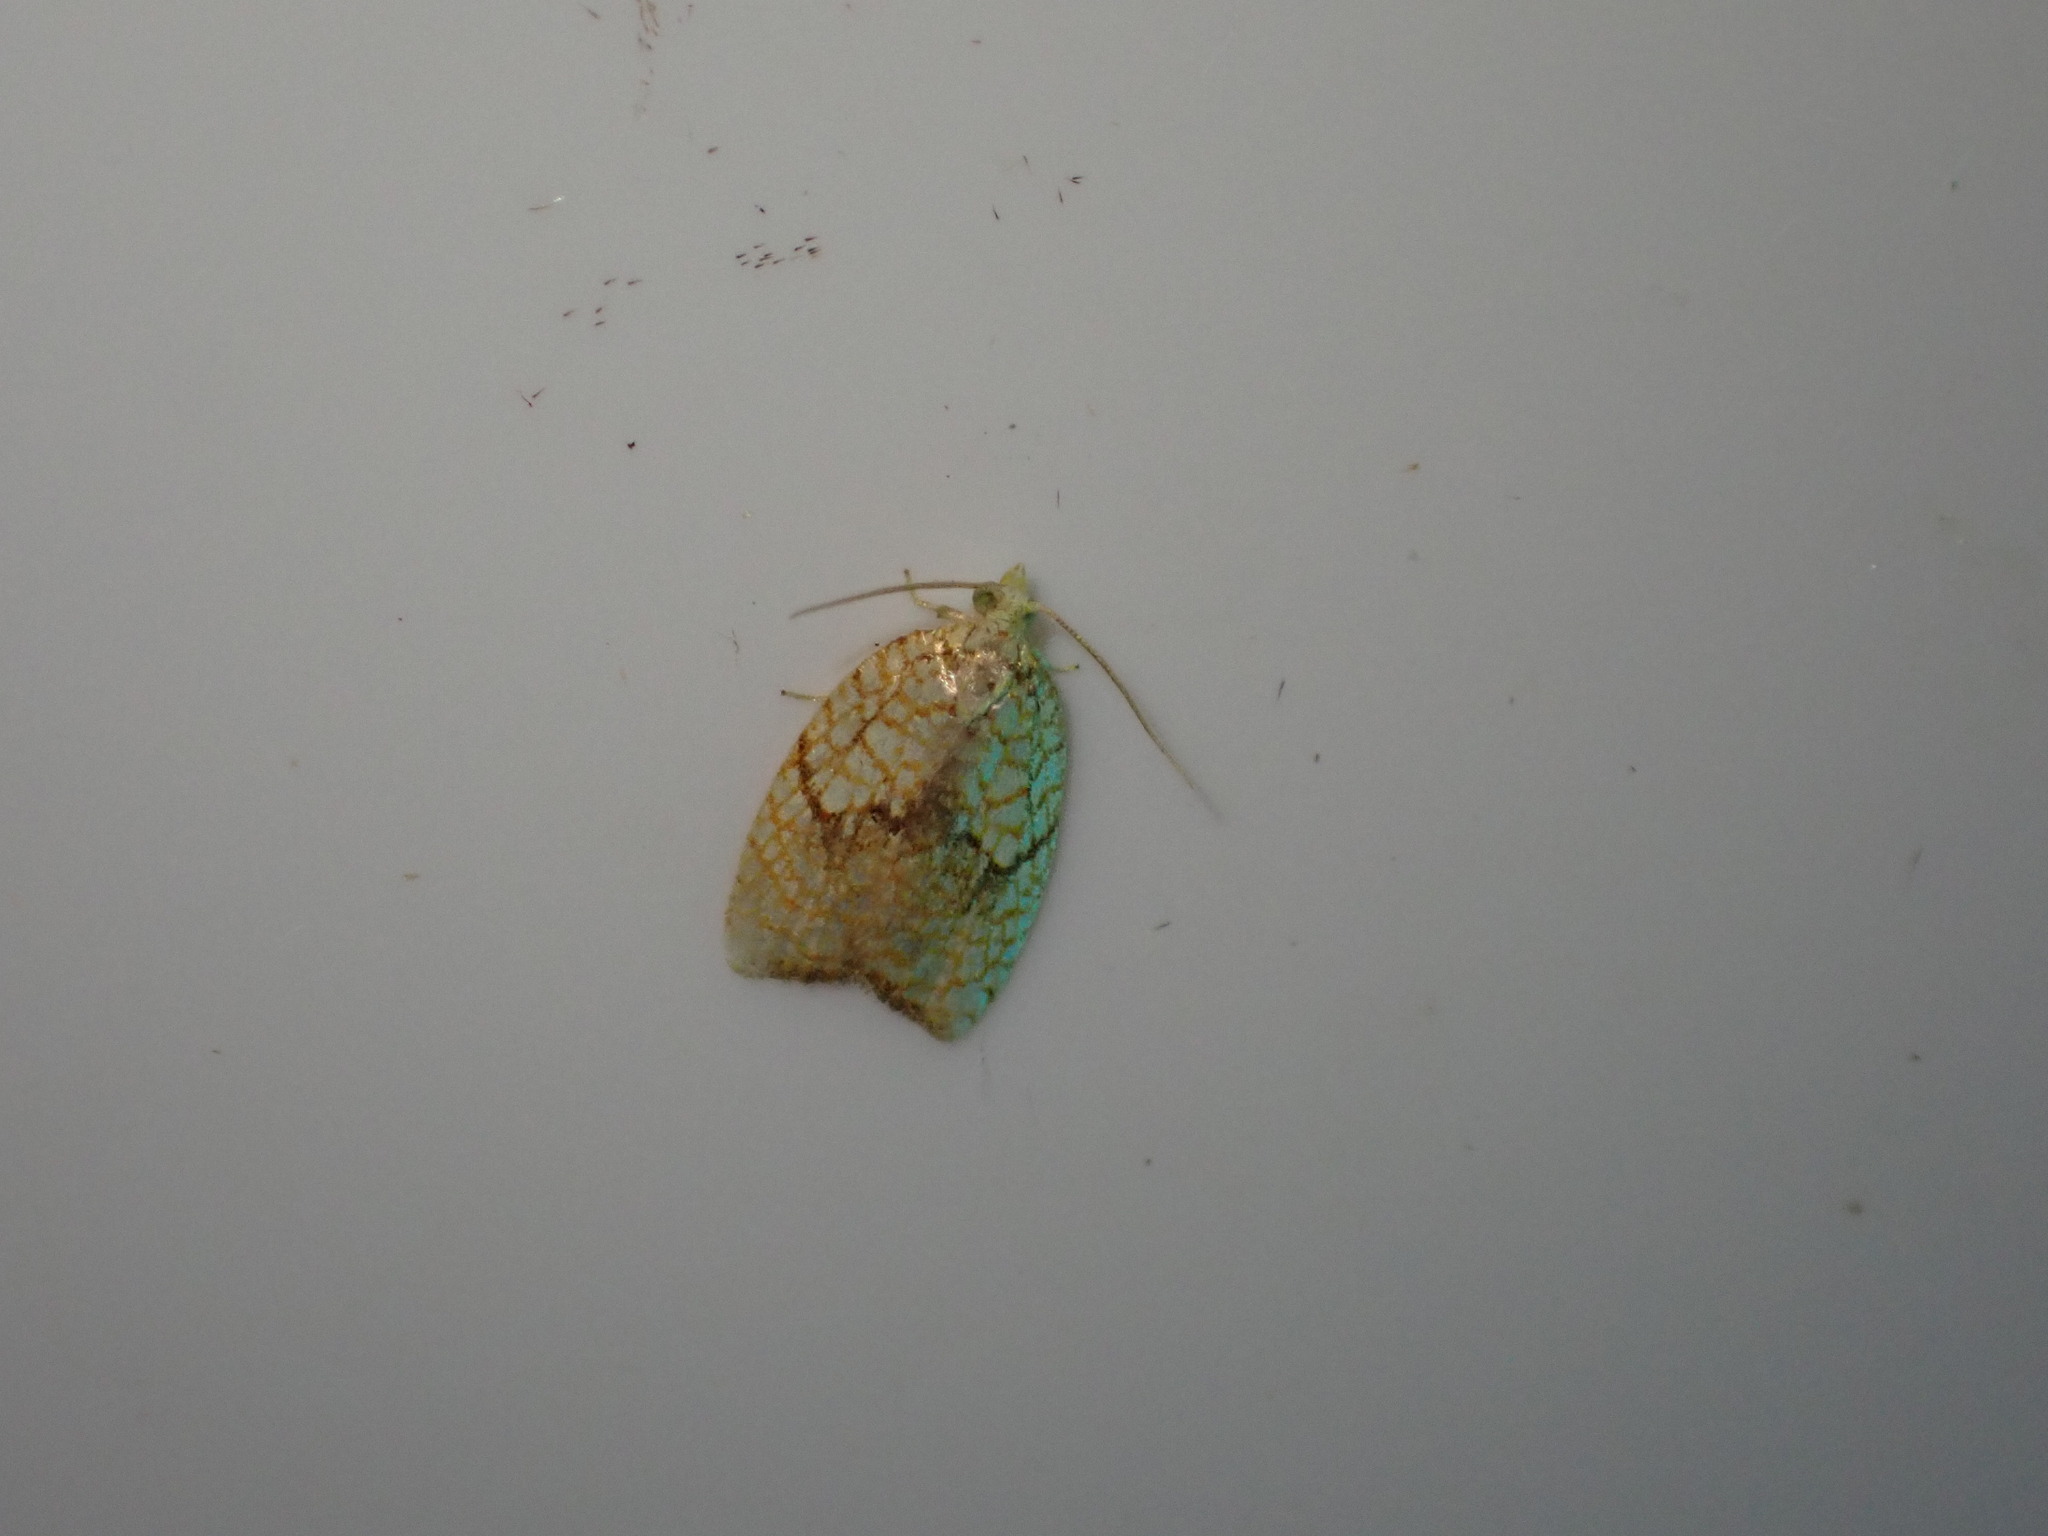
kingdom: Animalia
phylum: Arthropoda
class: Insecta
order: Lepidoptera
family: Tortricidae
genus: Acleris
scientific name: Acleris forsskaleana
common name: Maple button
